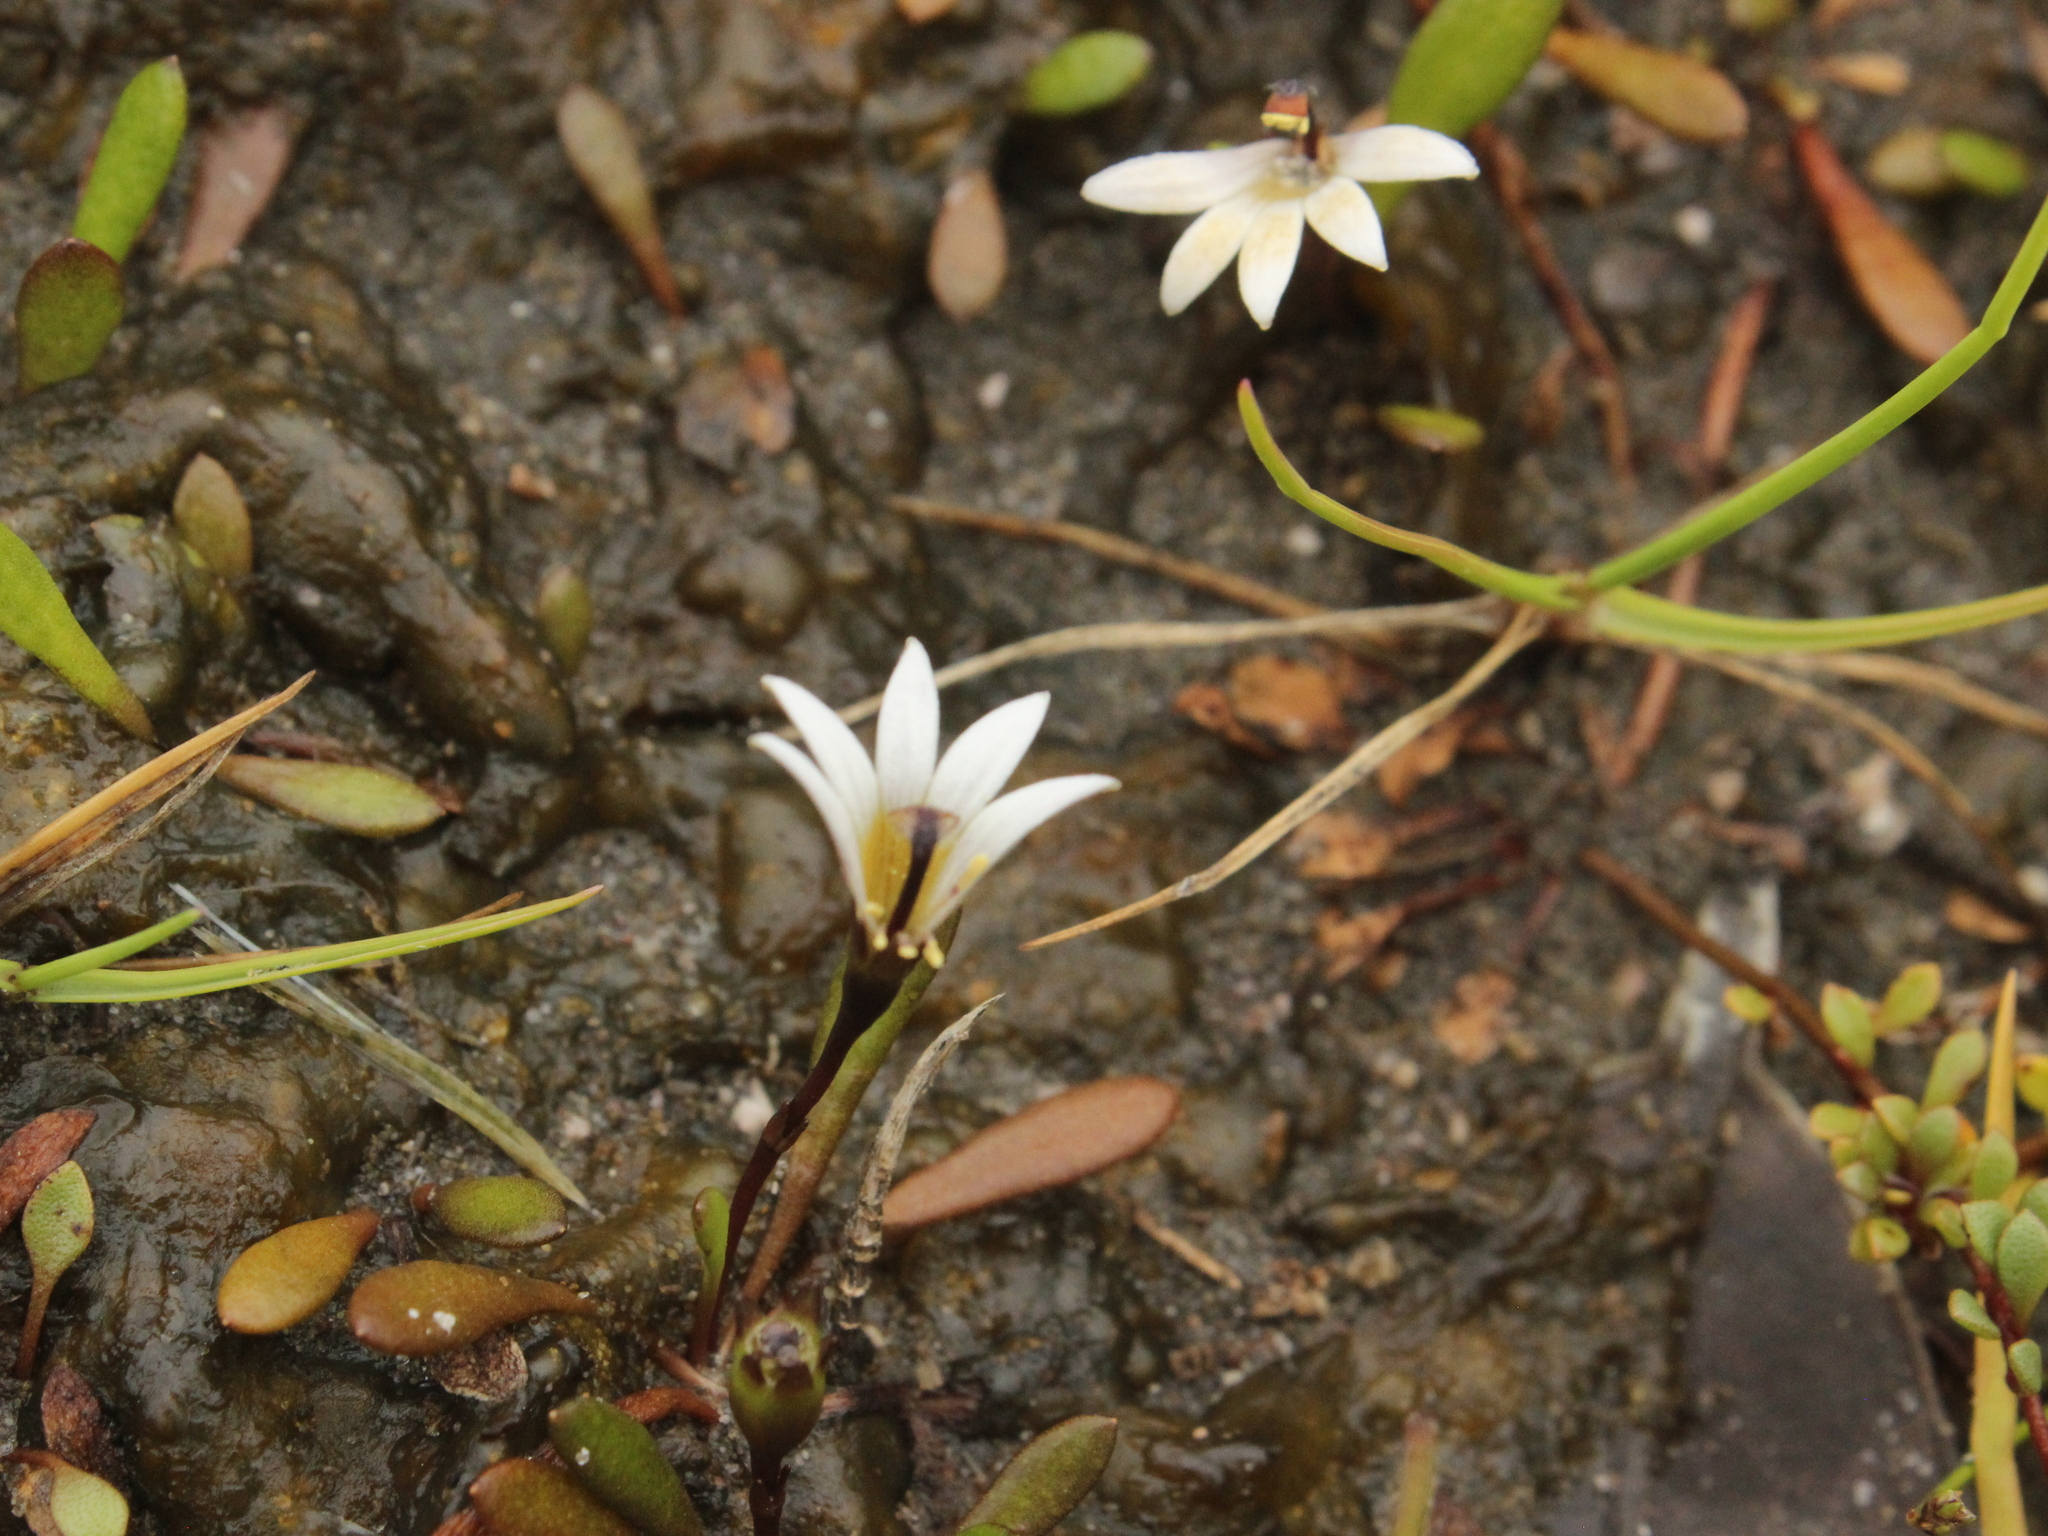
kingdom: Plantae
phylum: Tracheophyta
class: Magnoliopsida
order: Asterales
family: Goodeniaceae
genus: Goodenia
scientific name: Goodenia radicans
